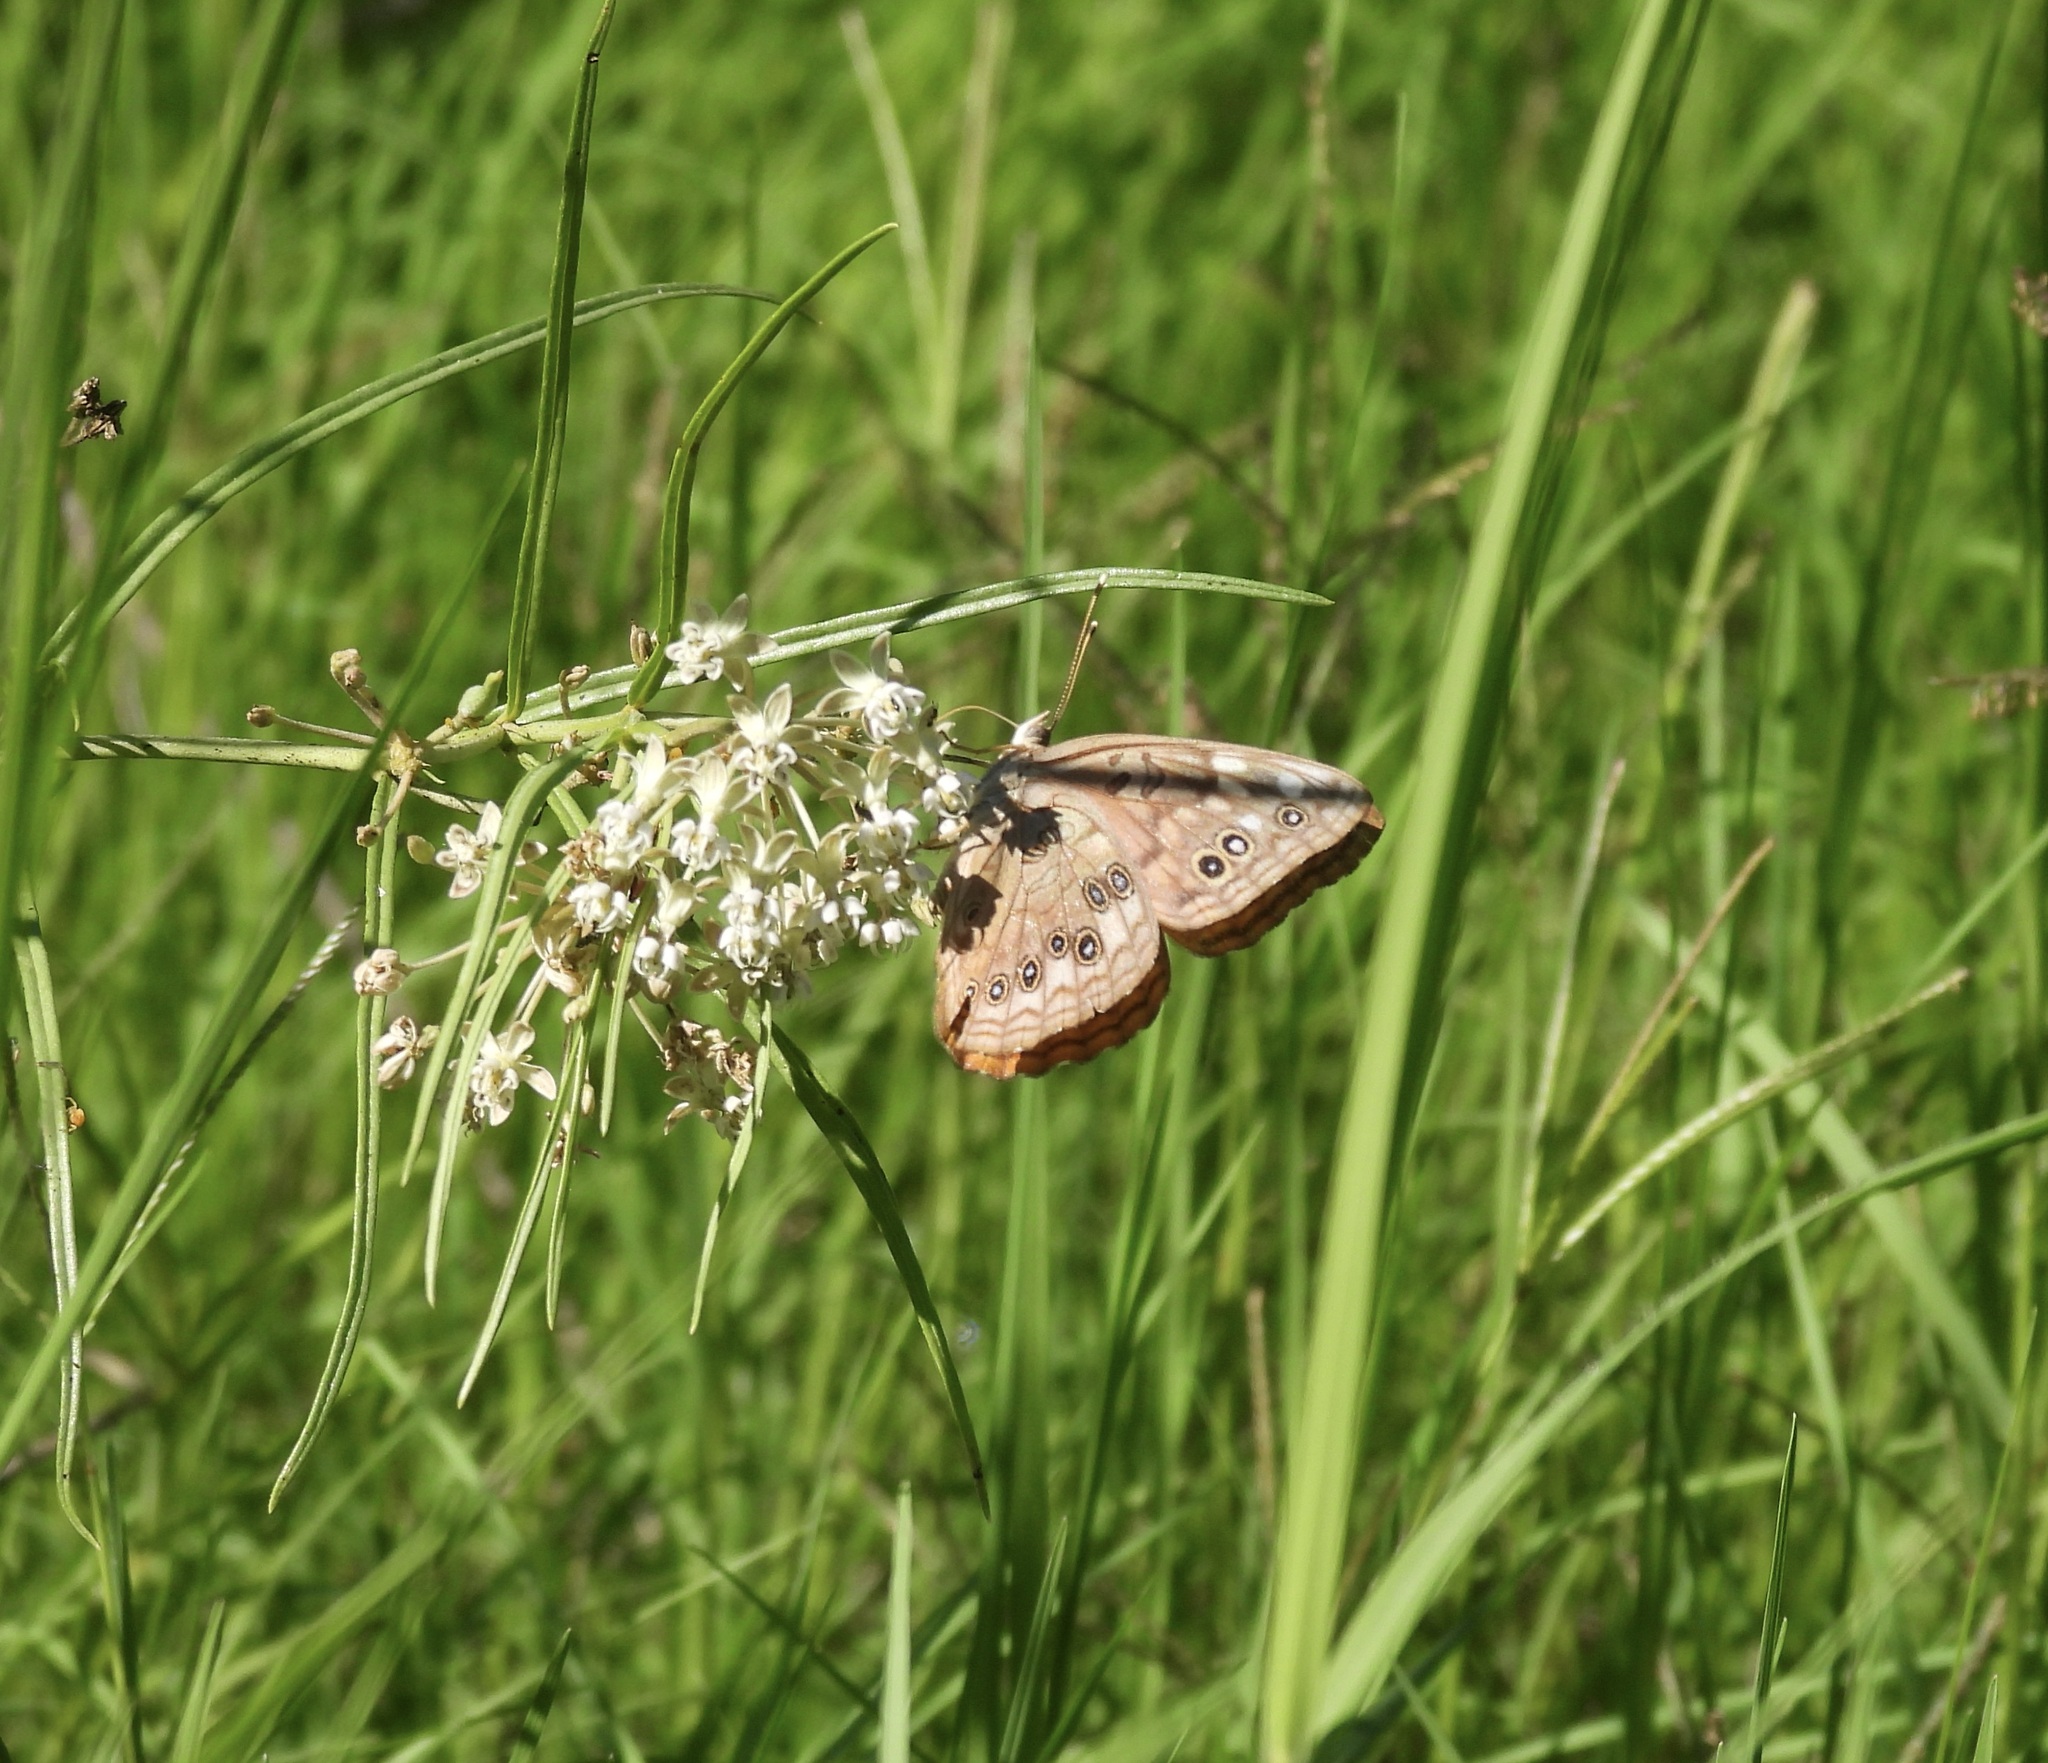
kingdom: Animalia
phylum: Arthropoda
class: Insecta
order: Lepidoptera
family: Nymphalidae
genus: Asterocampa
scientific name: Asterocampa celtis
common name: Hackberry emperor
